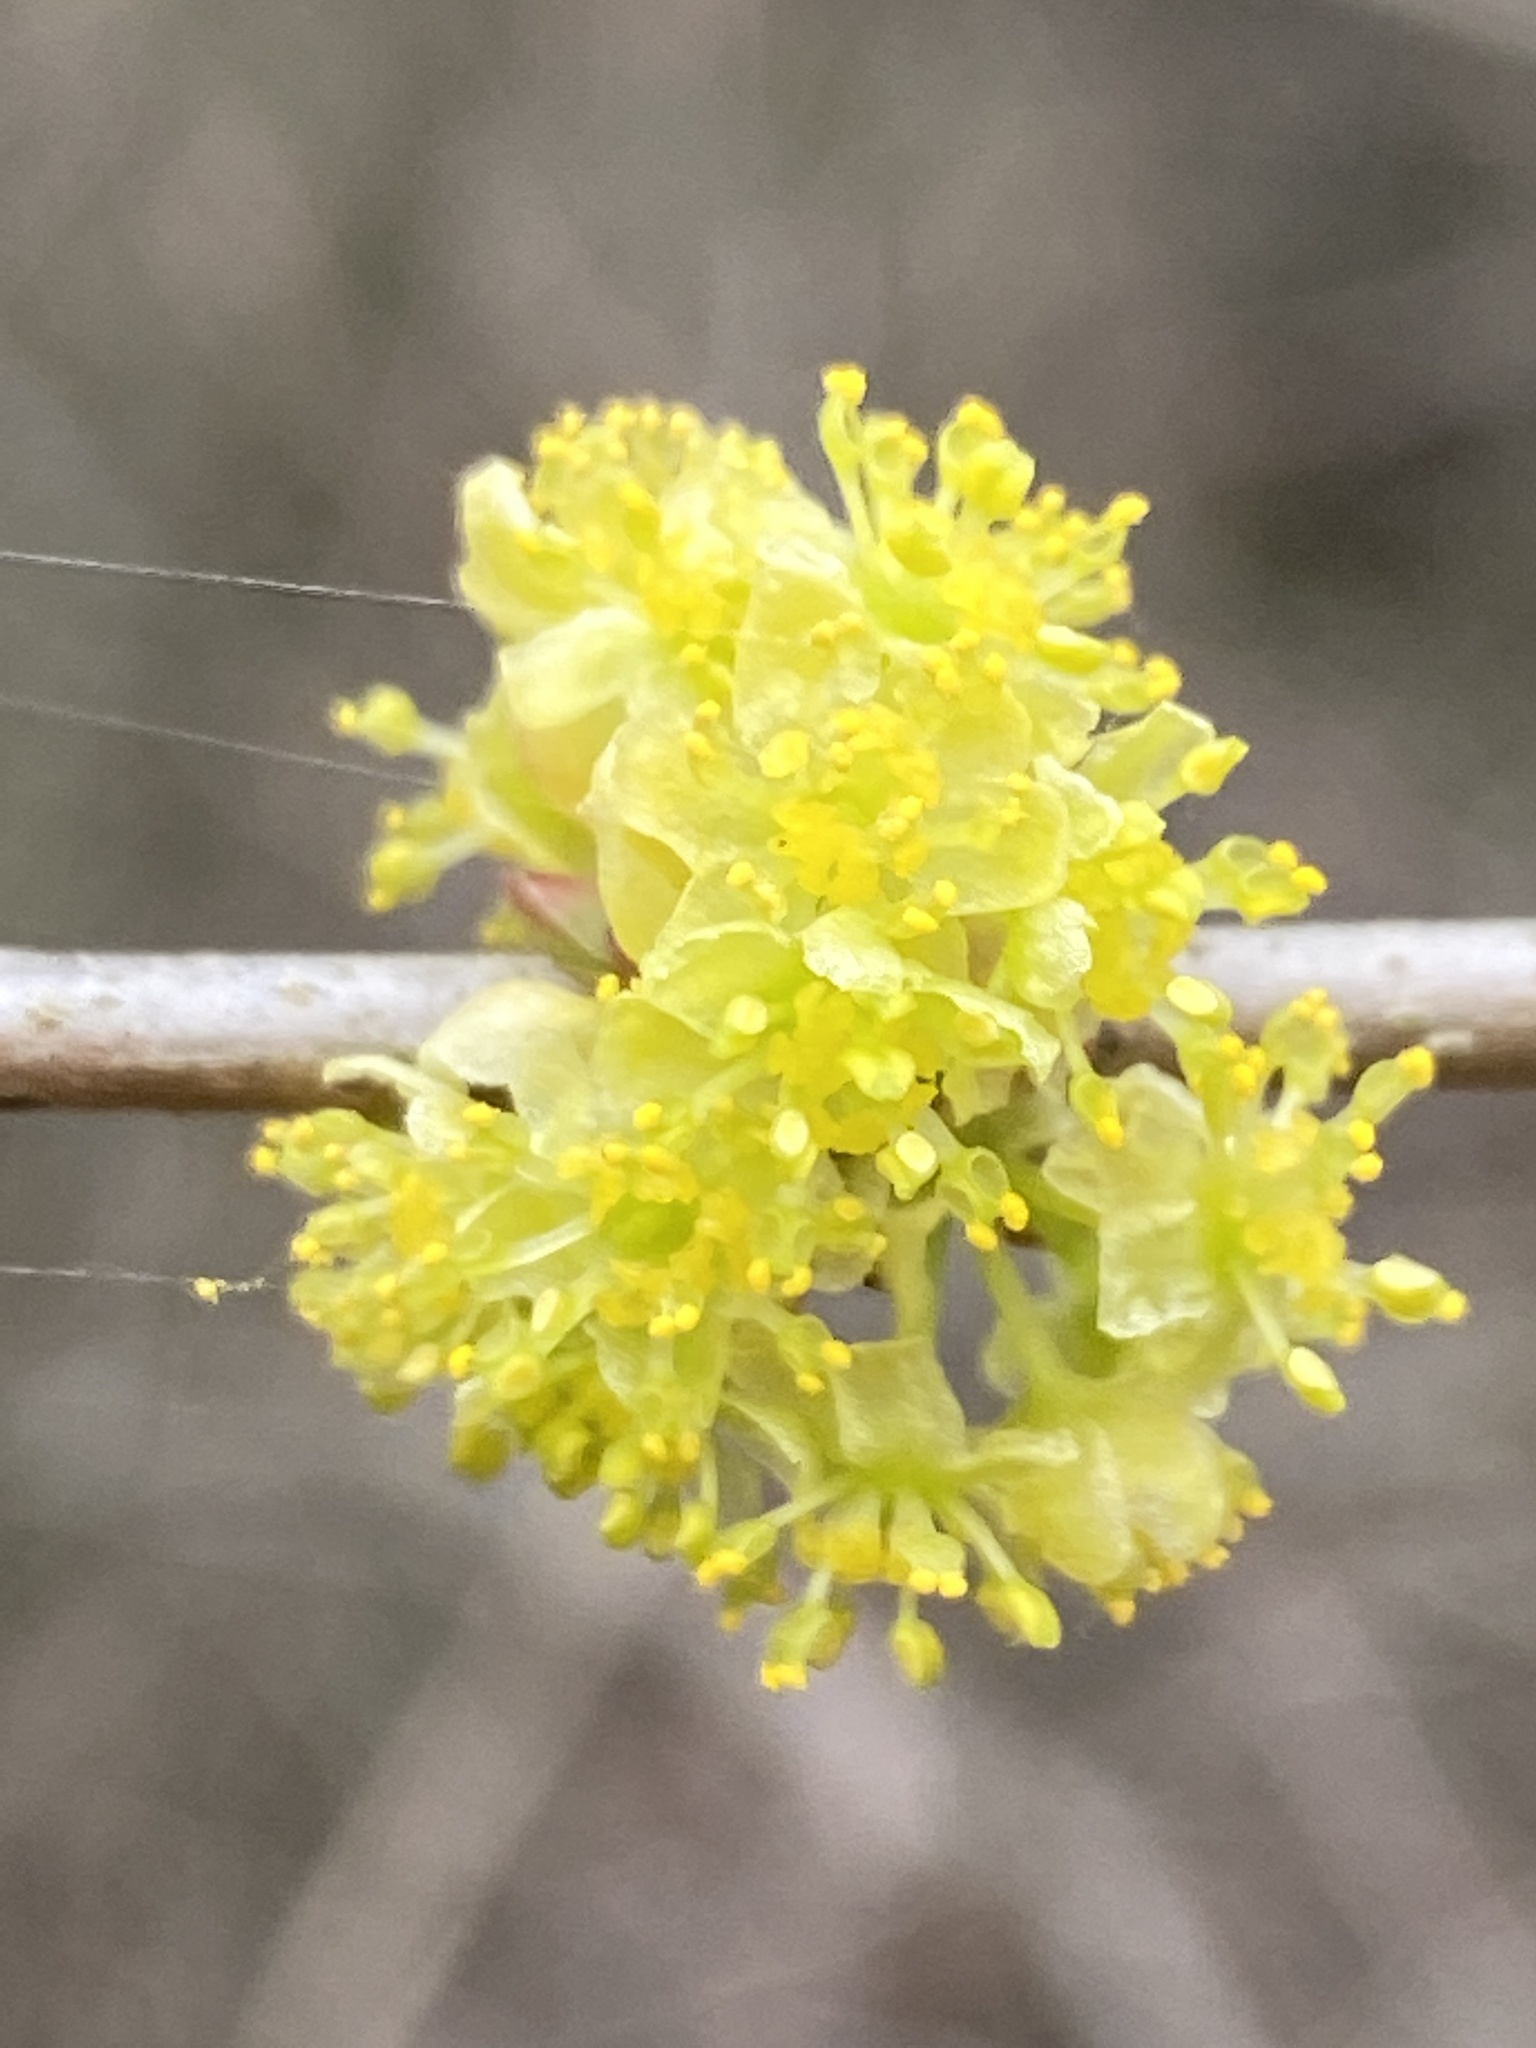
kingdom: Plantae
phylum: Tracheophyta
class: Magnoliopsida
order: Laurales
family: Lauraceae
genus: Lindera
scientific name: Lindera benzoin
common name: Spicebush
